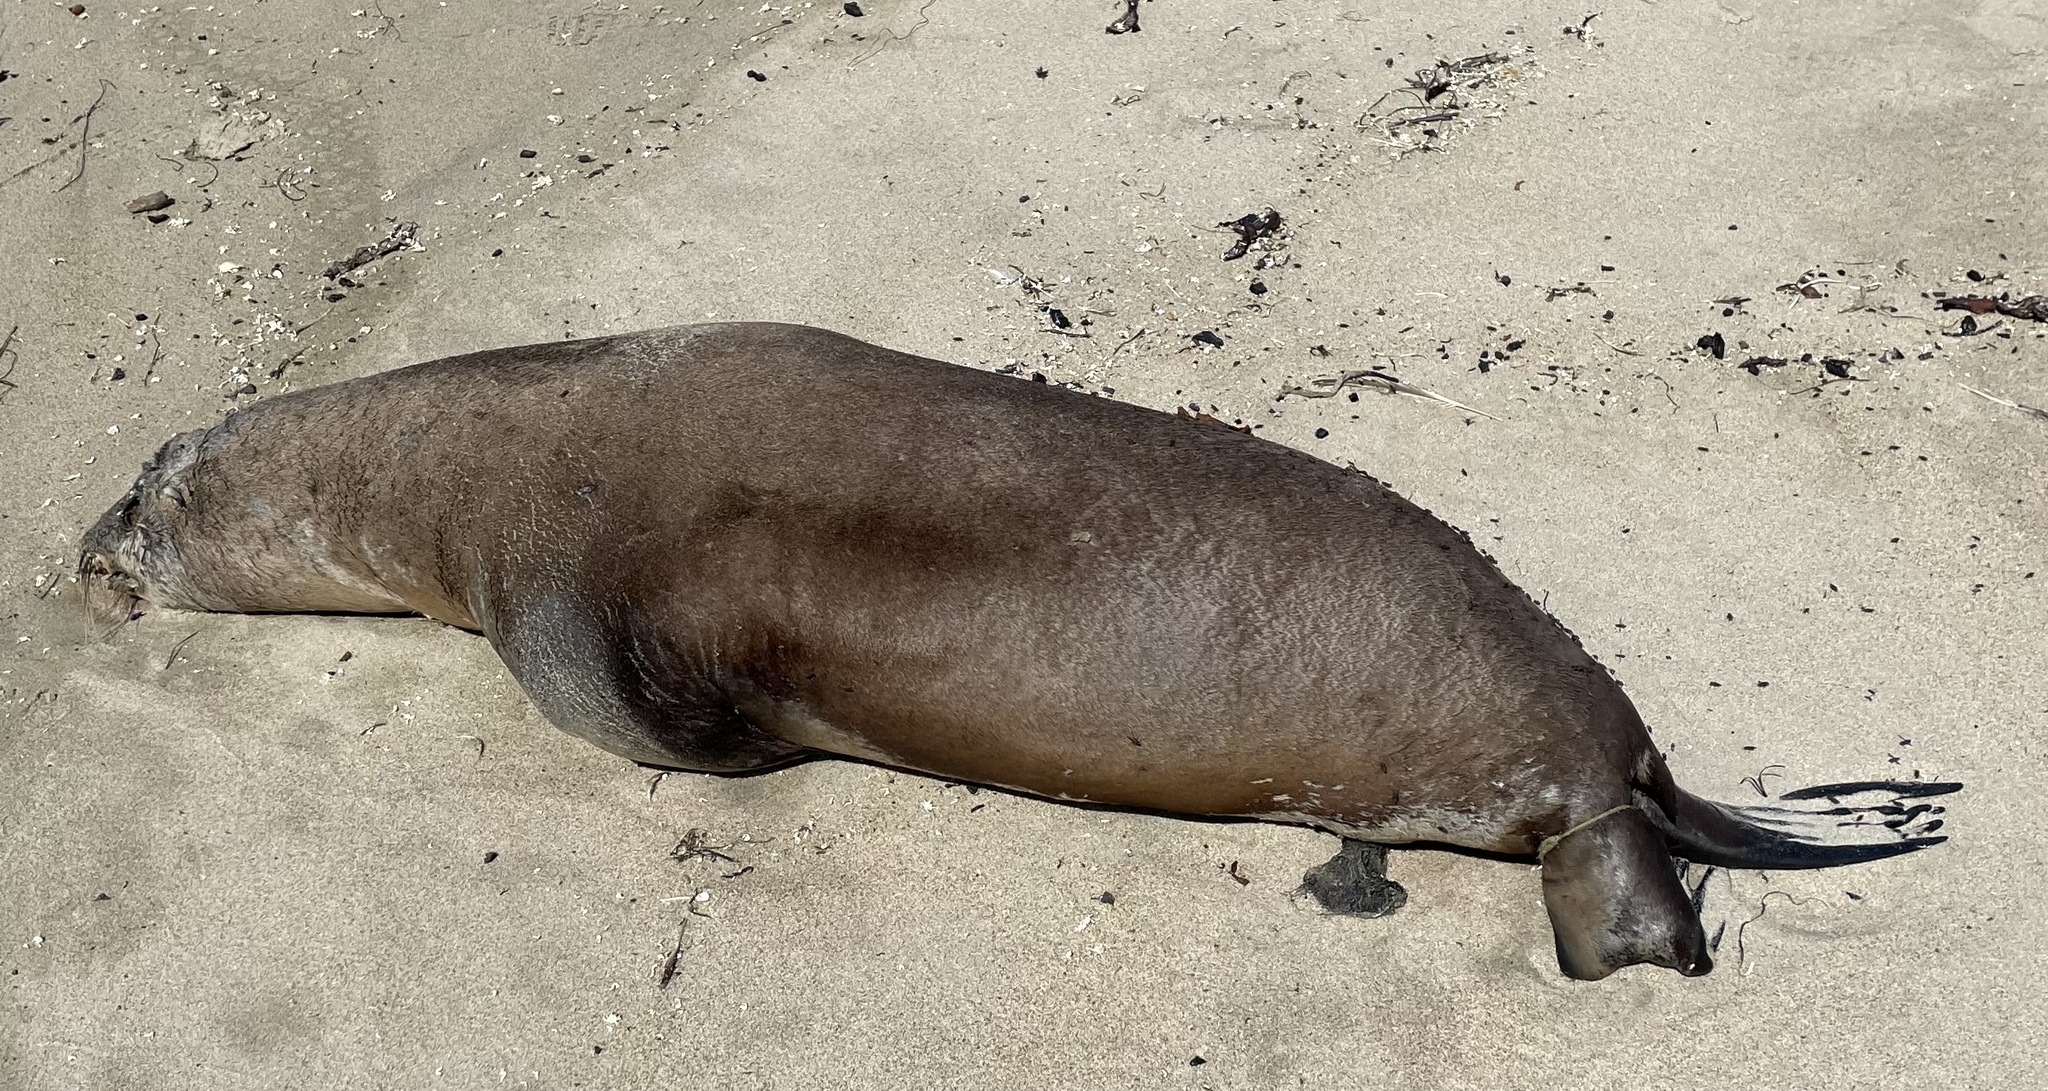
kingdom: Animalia
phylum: Chordata
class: Mammalia
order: Carnivora
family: Otariidae
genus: Zalophus
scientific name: Zalophus californianus
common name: California sea lion
